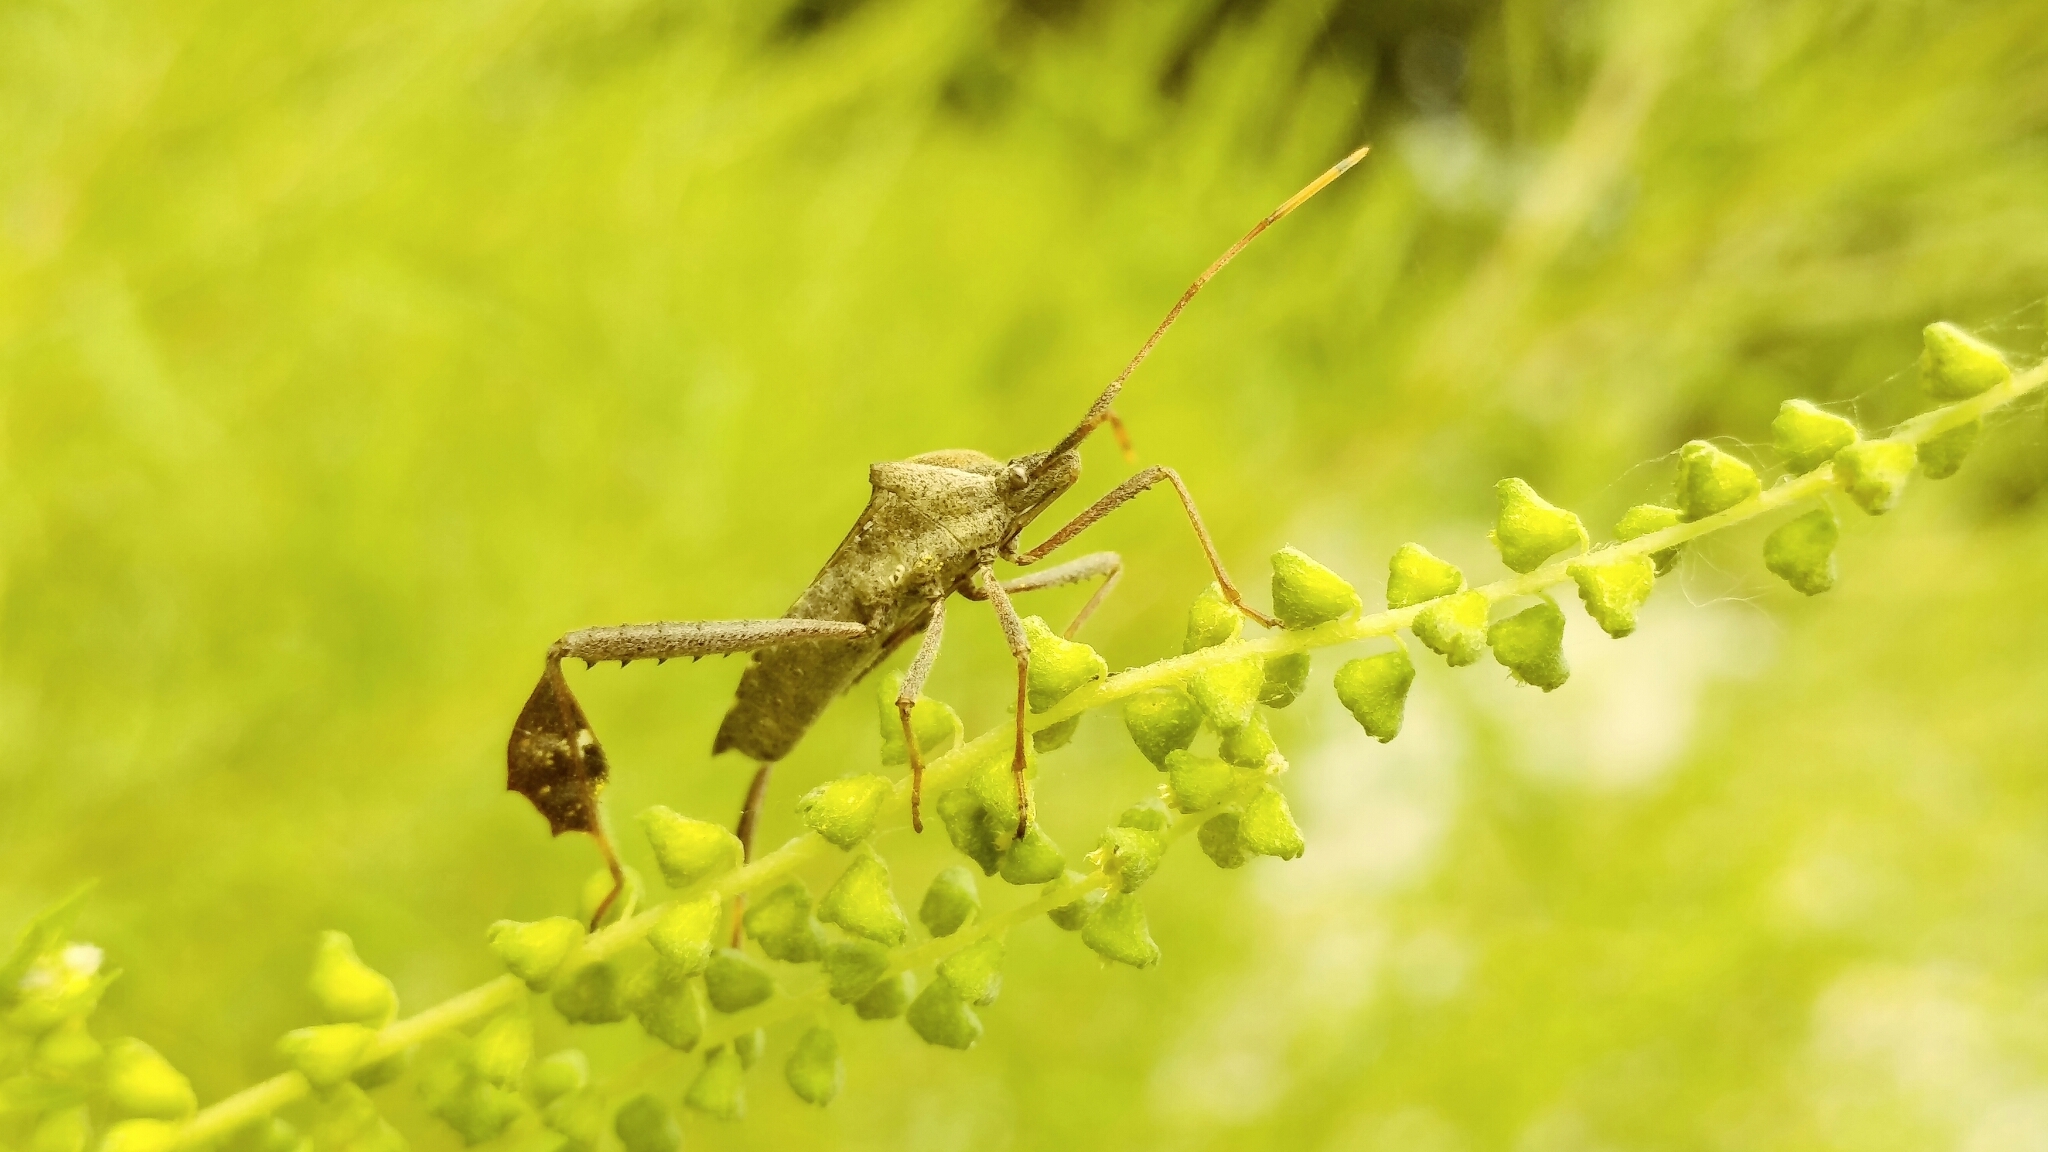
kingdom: Animalia
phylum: Arthropoda
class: Insecta
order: Hemiptera
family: Coreidae
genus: Leptoglossus
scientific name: Leptoglossus phyllopus
